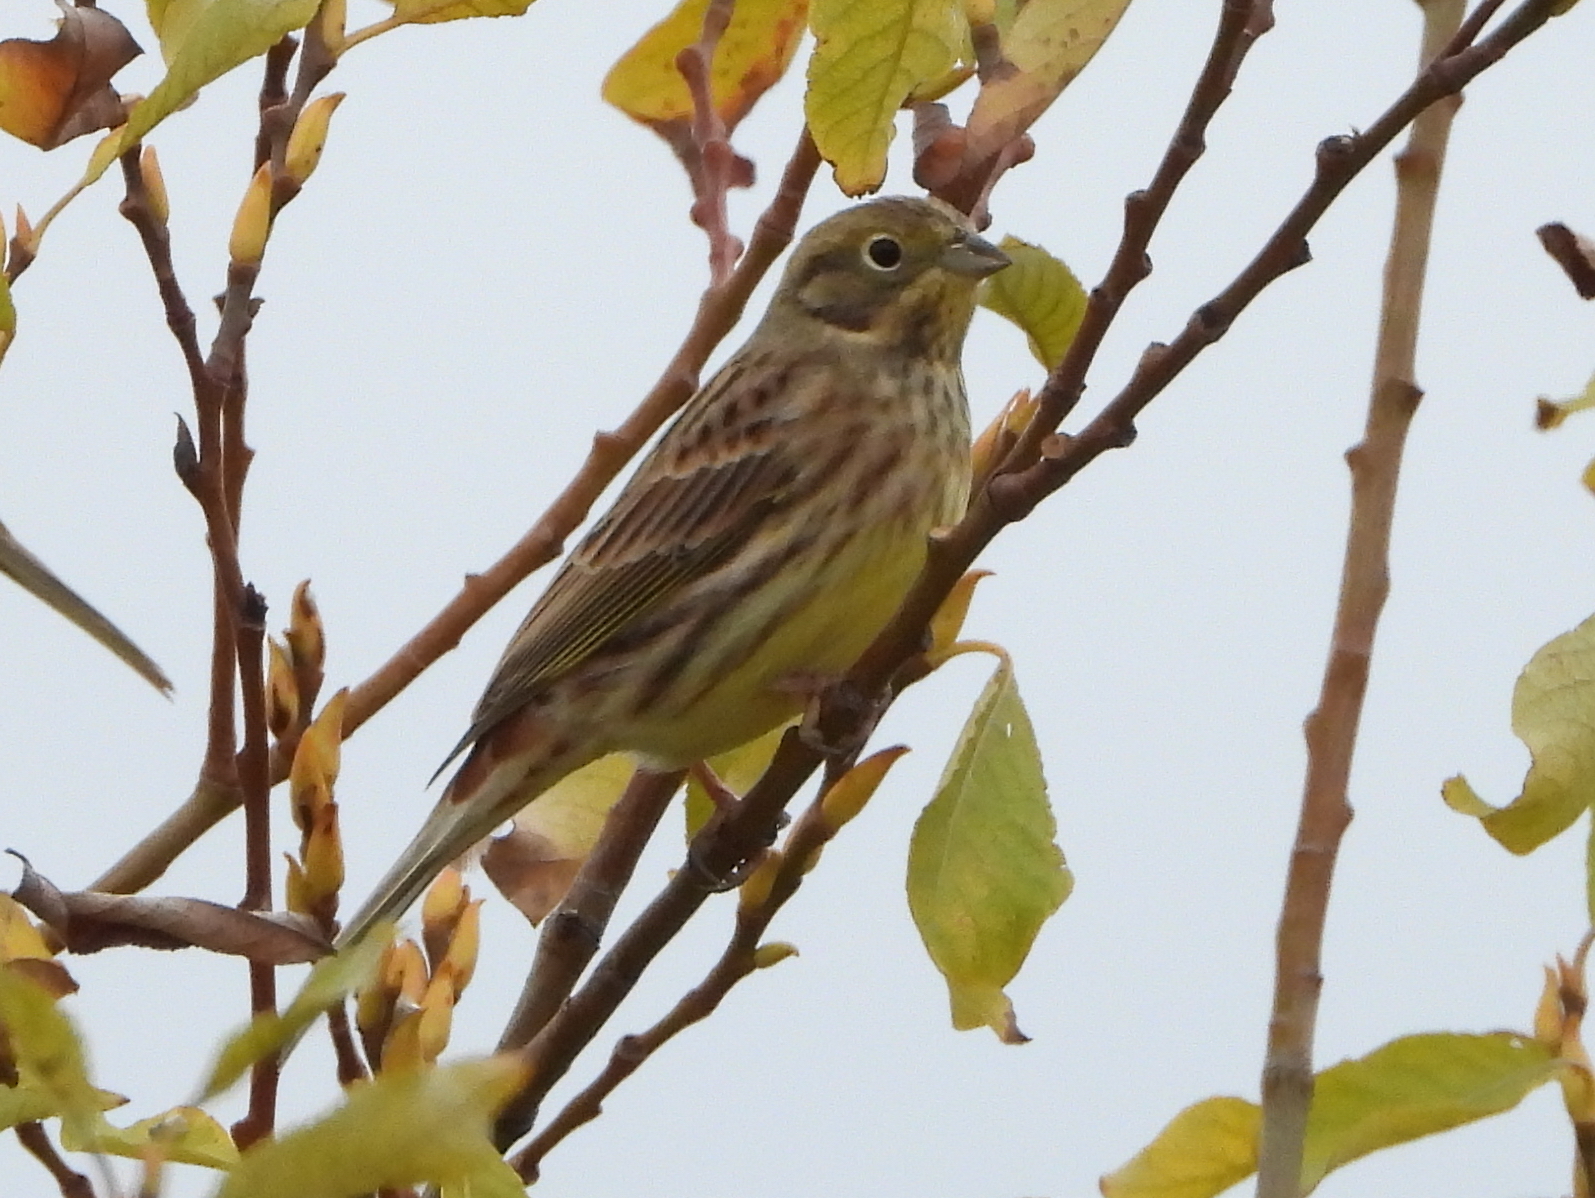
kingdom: Animalia
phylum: Chordata
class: Aves
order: Passeriformes
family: Emberizidae
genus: Emberiza
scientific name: Emberiza citrinella
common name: Yellowhammer
